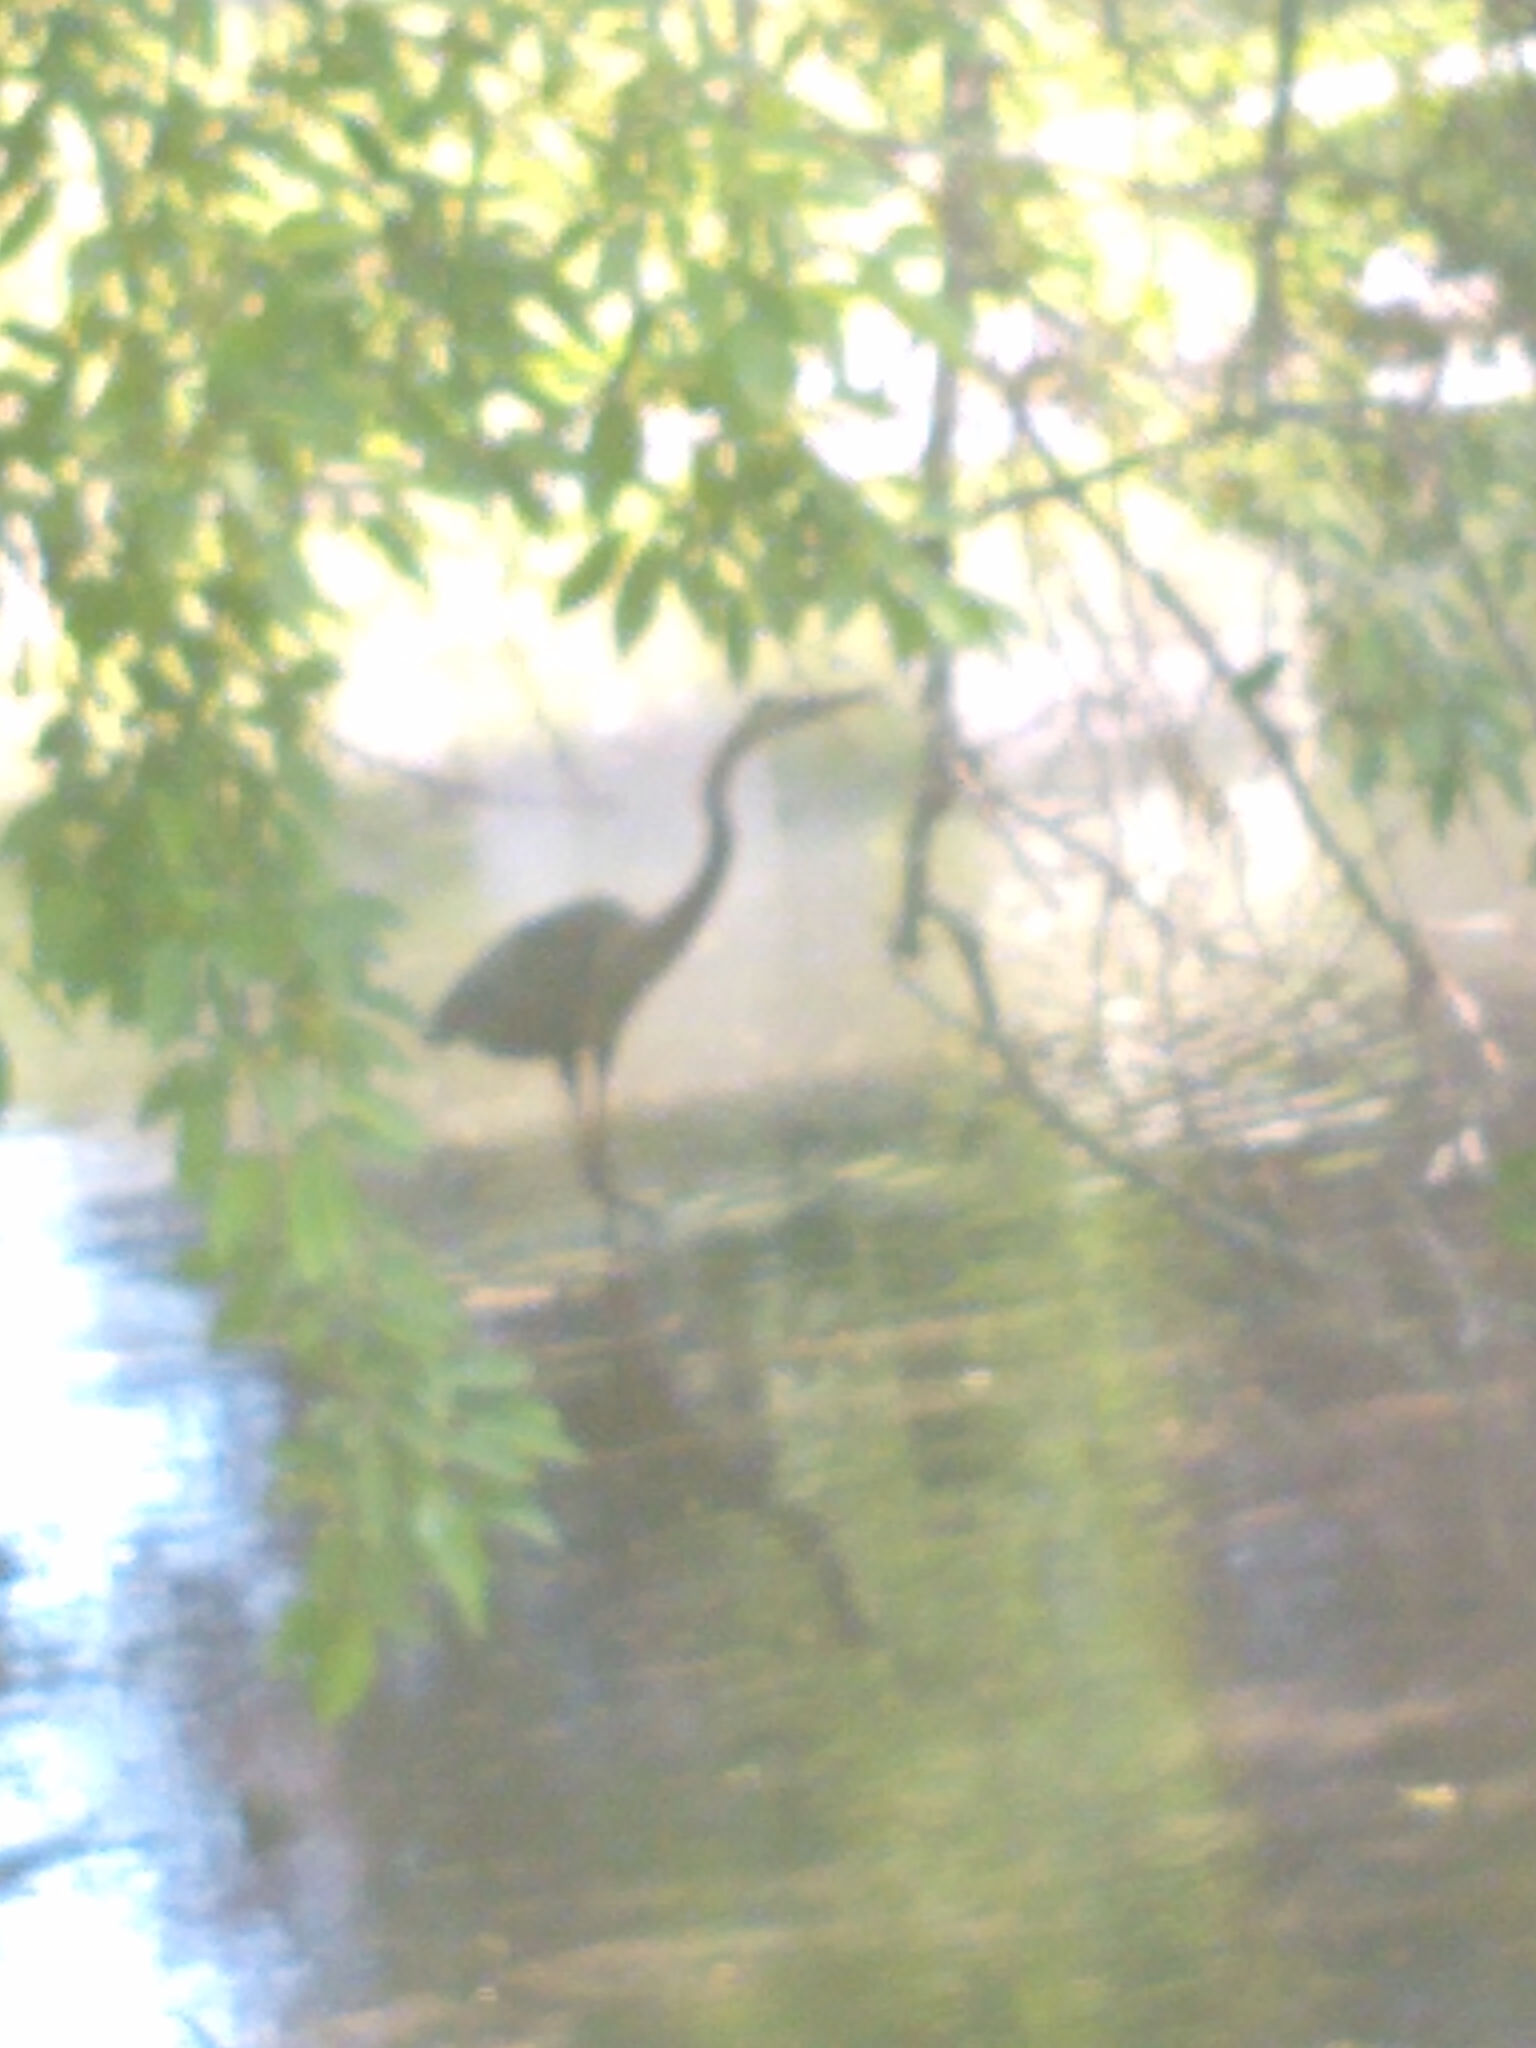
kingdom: Animalia
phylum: Chordata
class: Aves
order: Pelecaniformes
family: Ardeidae
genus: Ardea
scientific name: Ardea herodias
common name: Great blue heron
